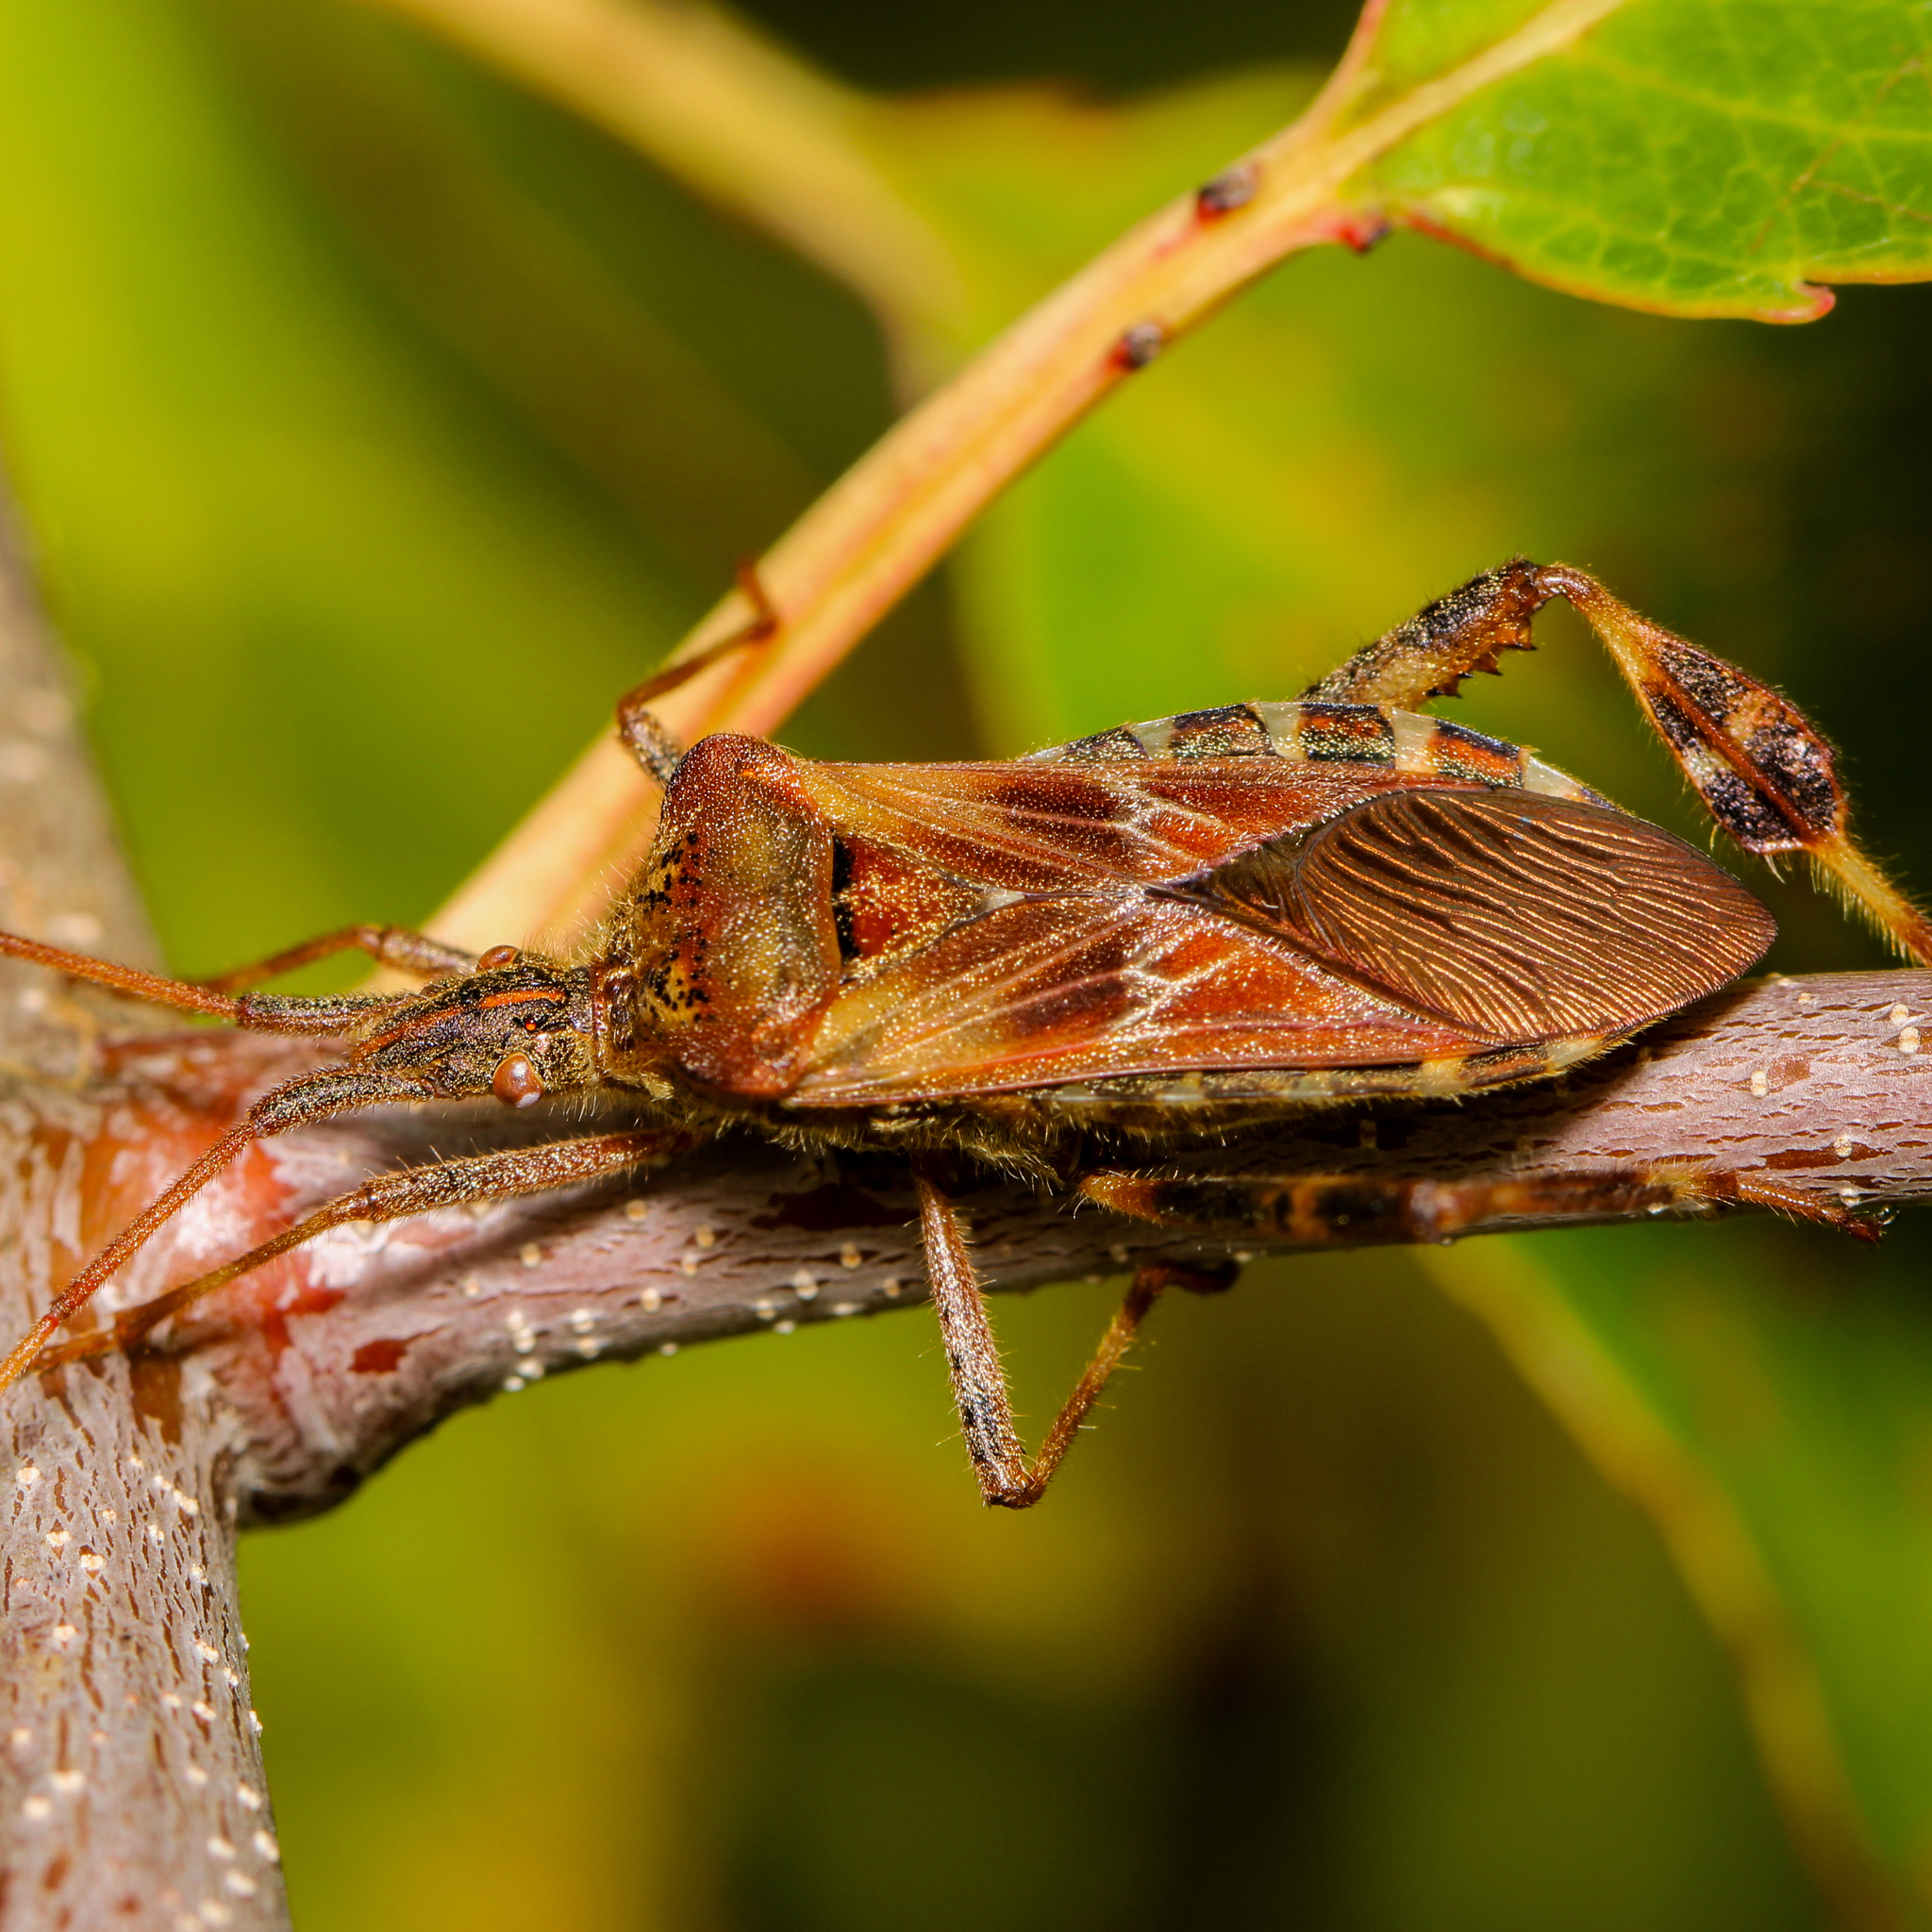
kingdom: Animalia
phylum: Arthropoda
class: Insecta
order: Hemiptera
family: Coreidae
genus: Leptoglossus
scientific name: Leptoglossus occidentalis
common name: Western conifer-seed bug
